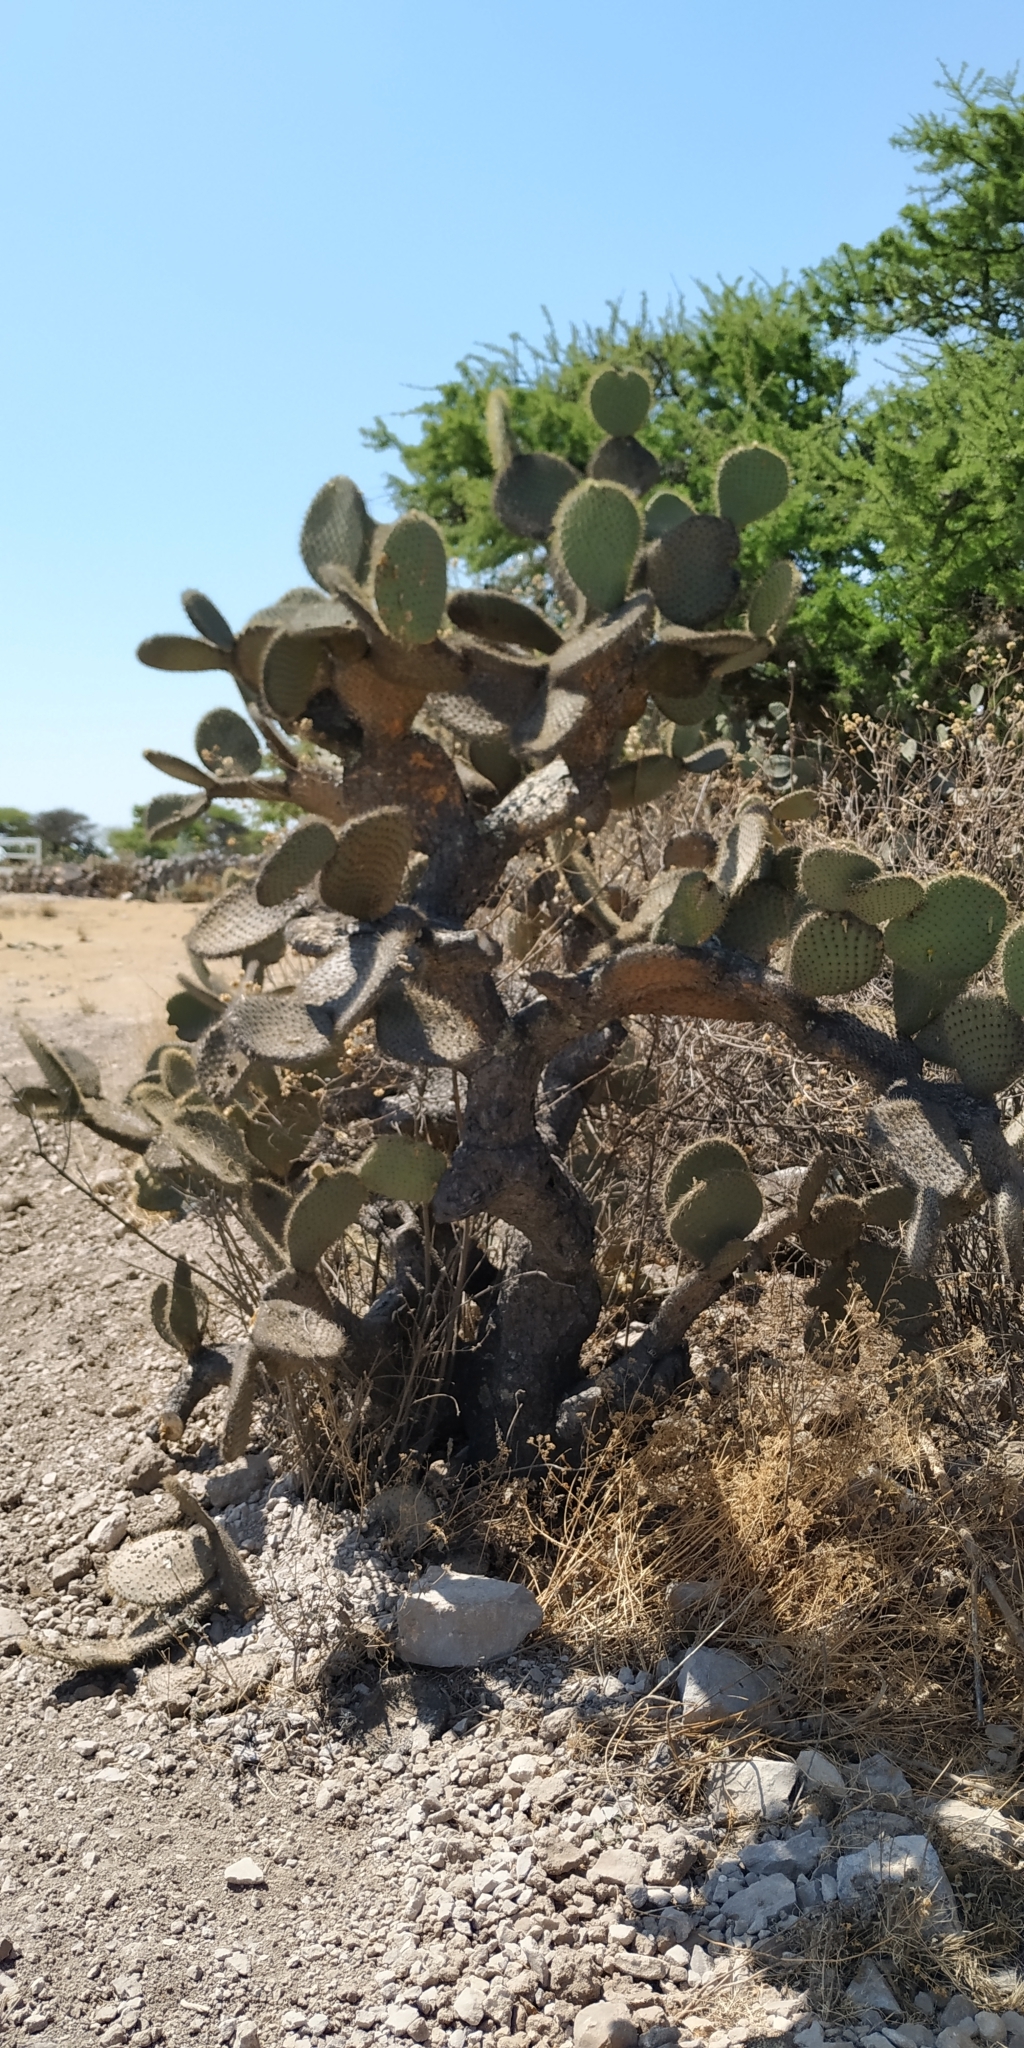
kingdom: Plantae
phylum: Tracheophyta
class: Magnoliopsida
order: Caryophyllales
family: Cactaceae
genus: Opuntia
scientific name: Opuntia leucotricha
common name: Arborescent pricklypear
